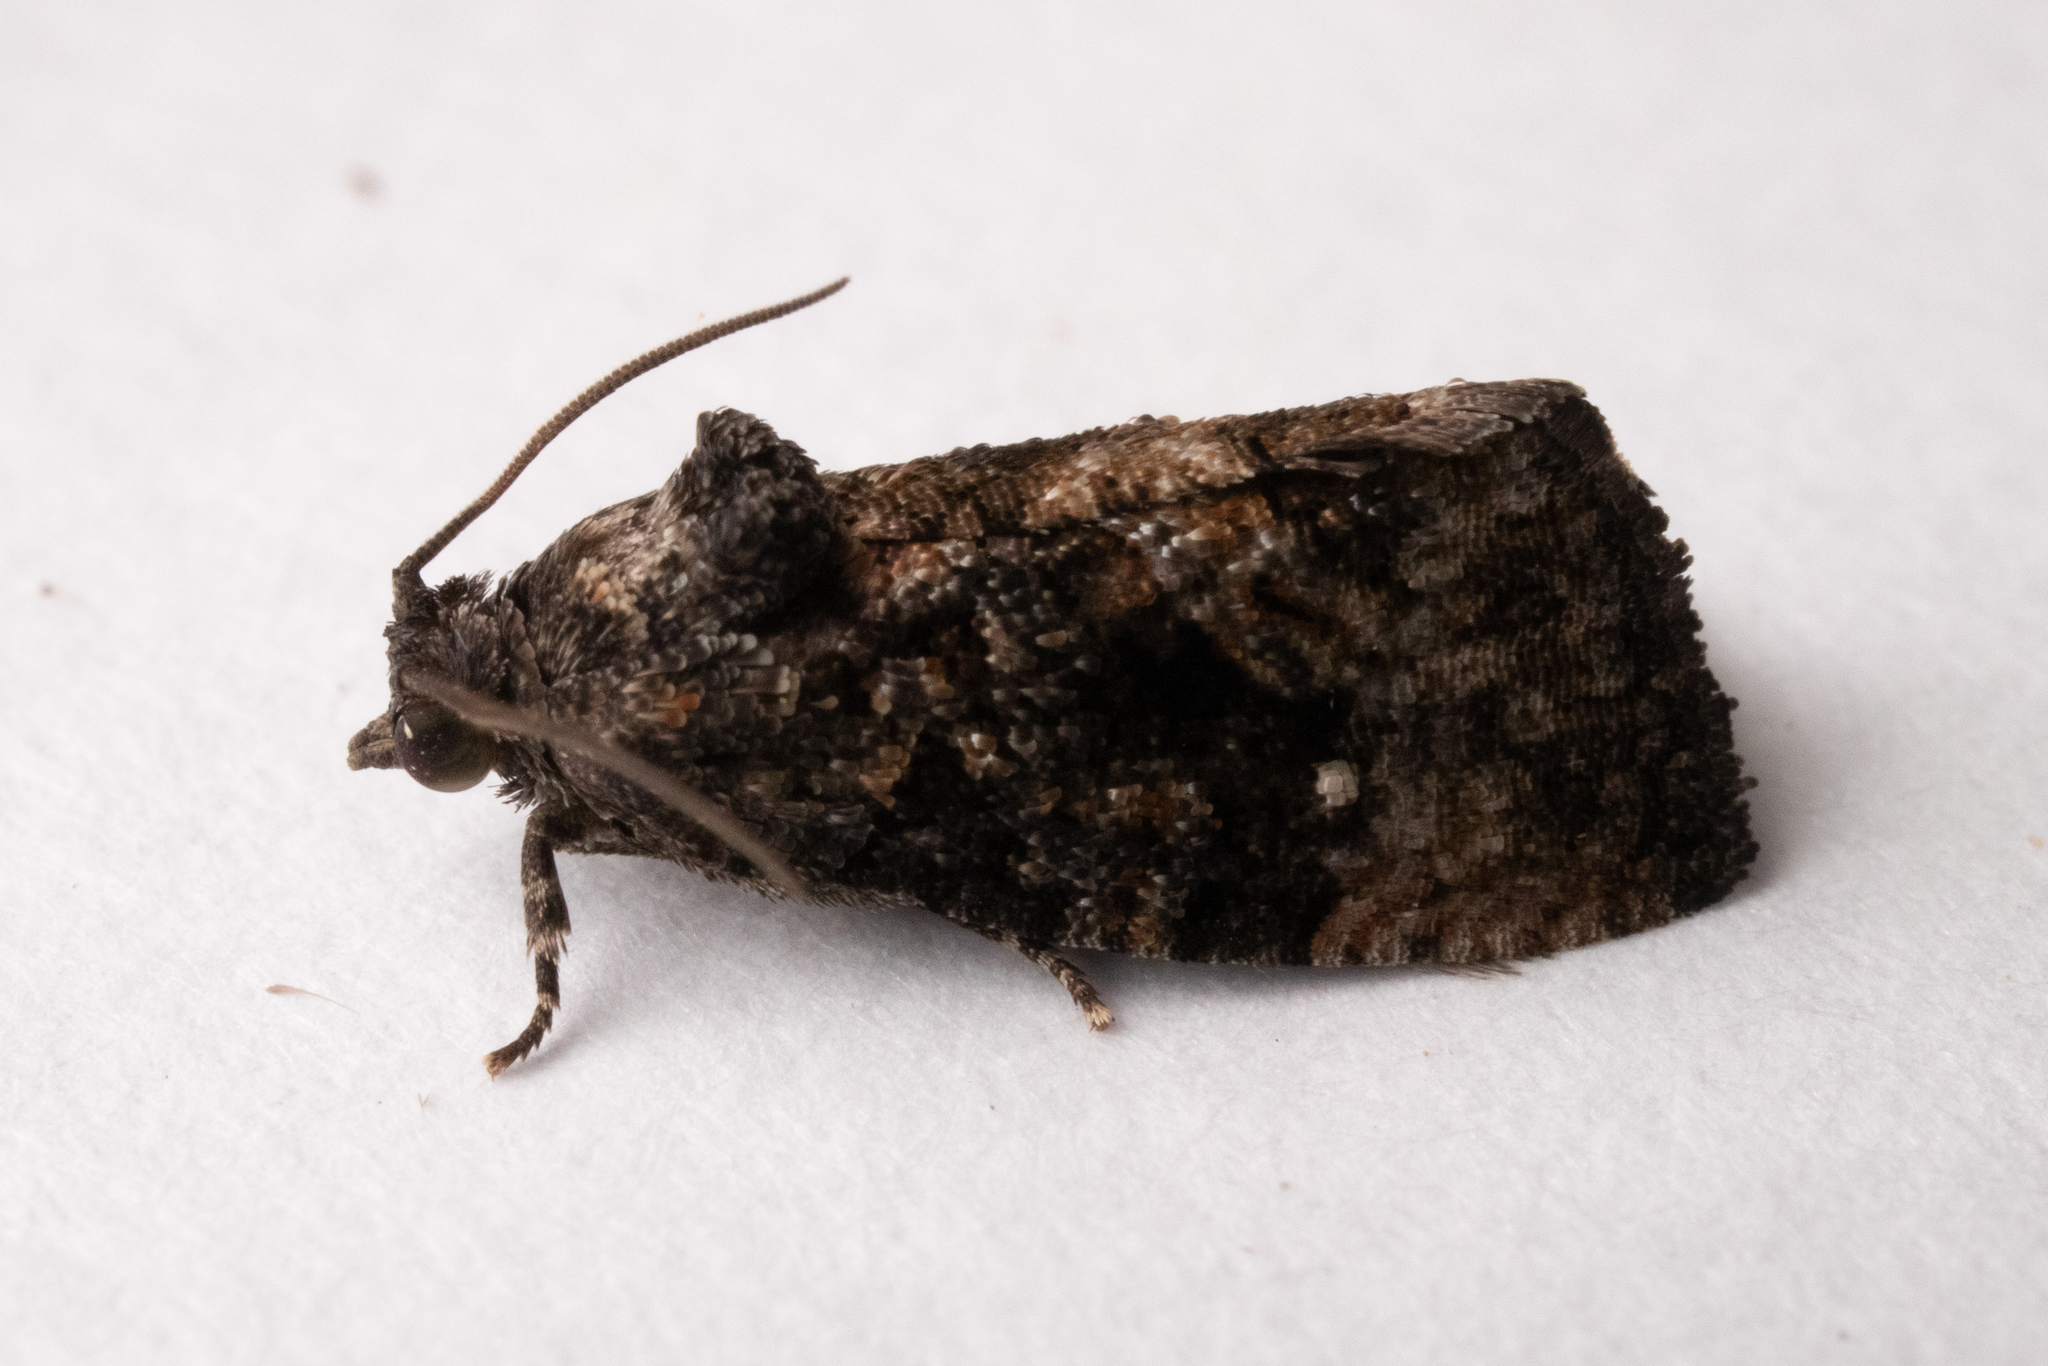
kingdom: Animalia
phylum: Arthropoda
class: Insecta
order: Lepidoptera
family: Tortricidae
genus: Gymnandrosoma
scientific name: Gymnandrosoma punctidiscanum
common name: Dotted ecdytolopha moth
